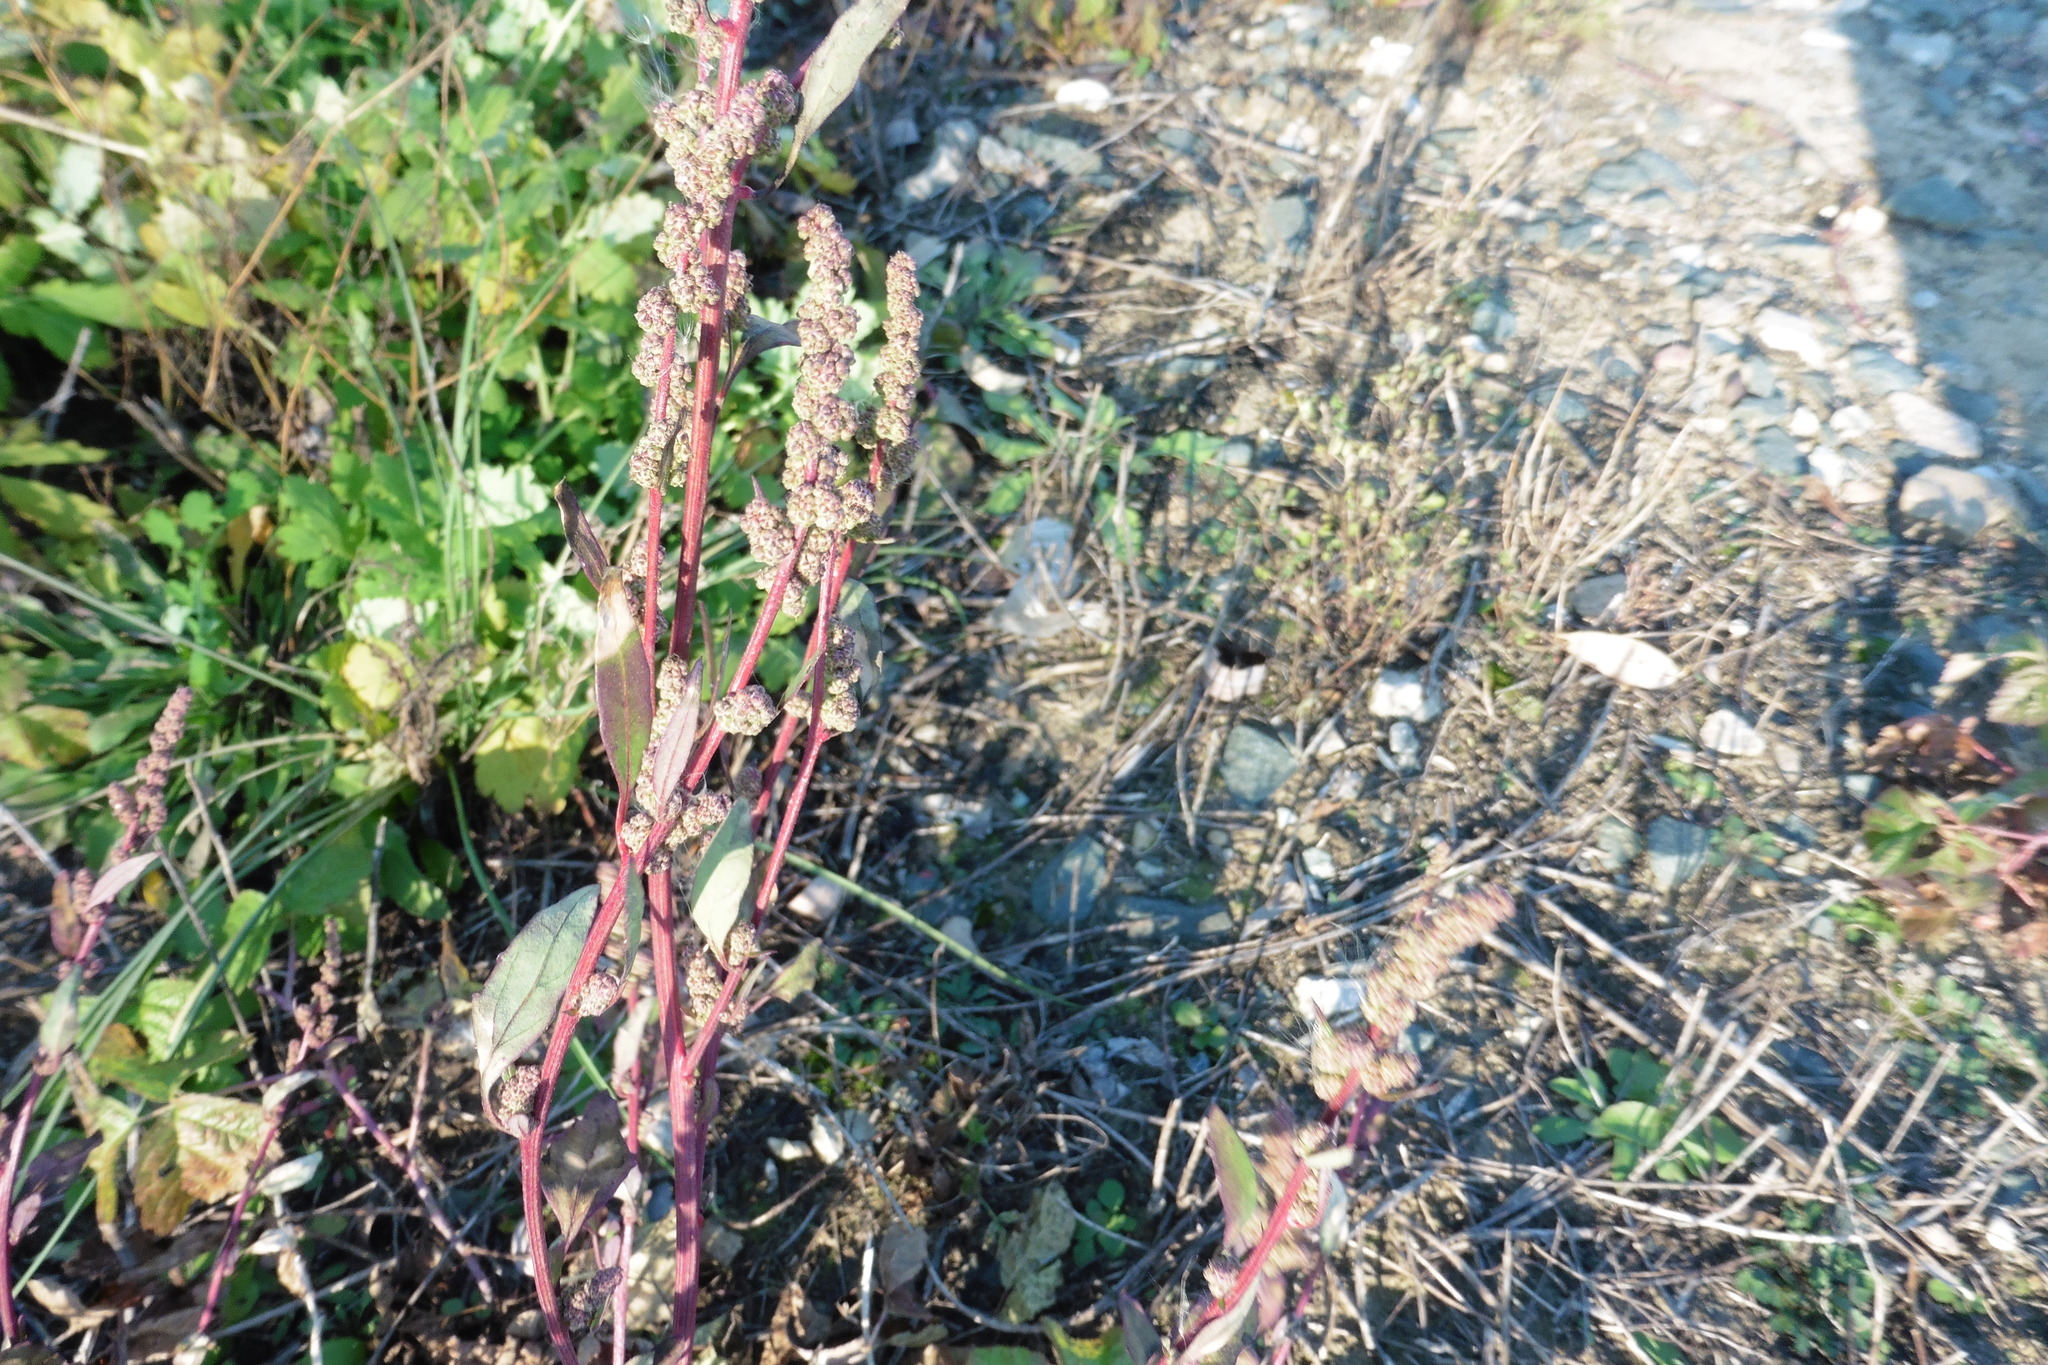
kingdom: Plantae
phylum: Tracheophyta
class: Magnoliopsida
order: Caryophyllales
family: Amaranthaceae
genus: Chenopodium
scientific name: Chenopodium album
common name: Fat-hen
